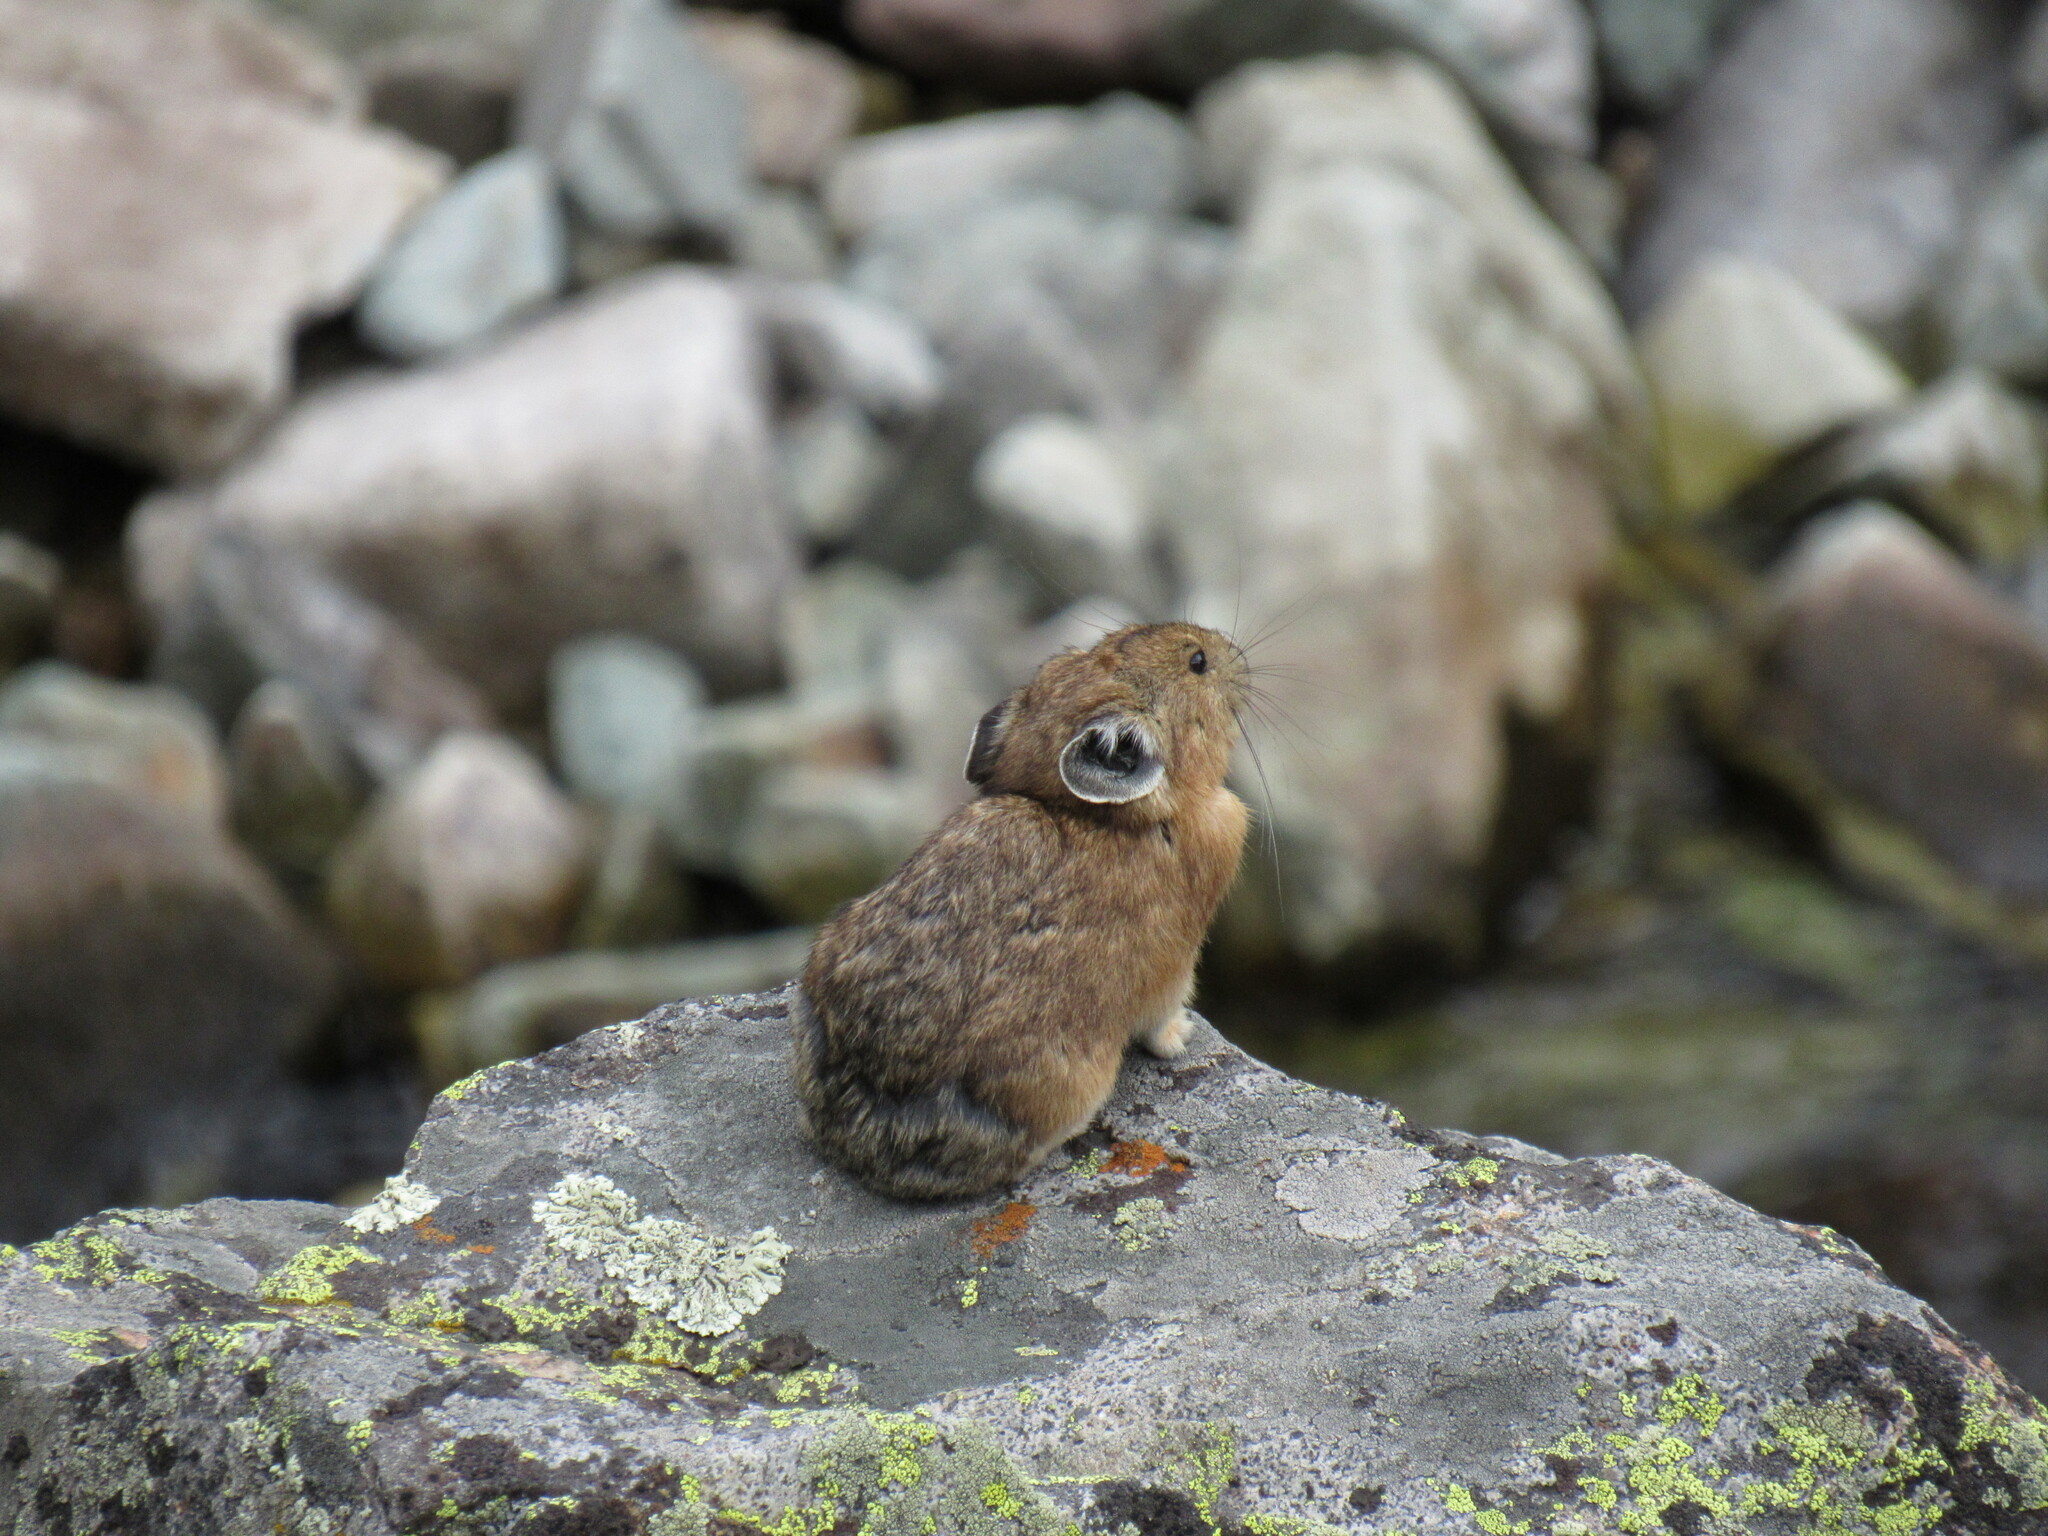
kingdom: Animalia
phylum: Chordata
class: Mammalia
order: Lagomorpha
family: Ochotonidae
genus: Ochotona
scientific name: Ochotona princeps
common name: American pika
